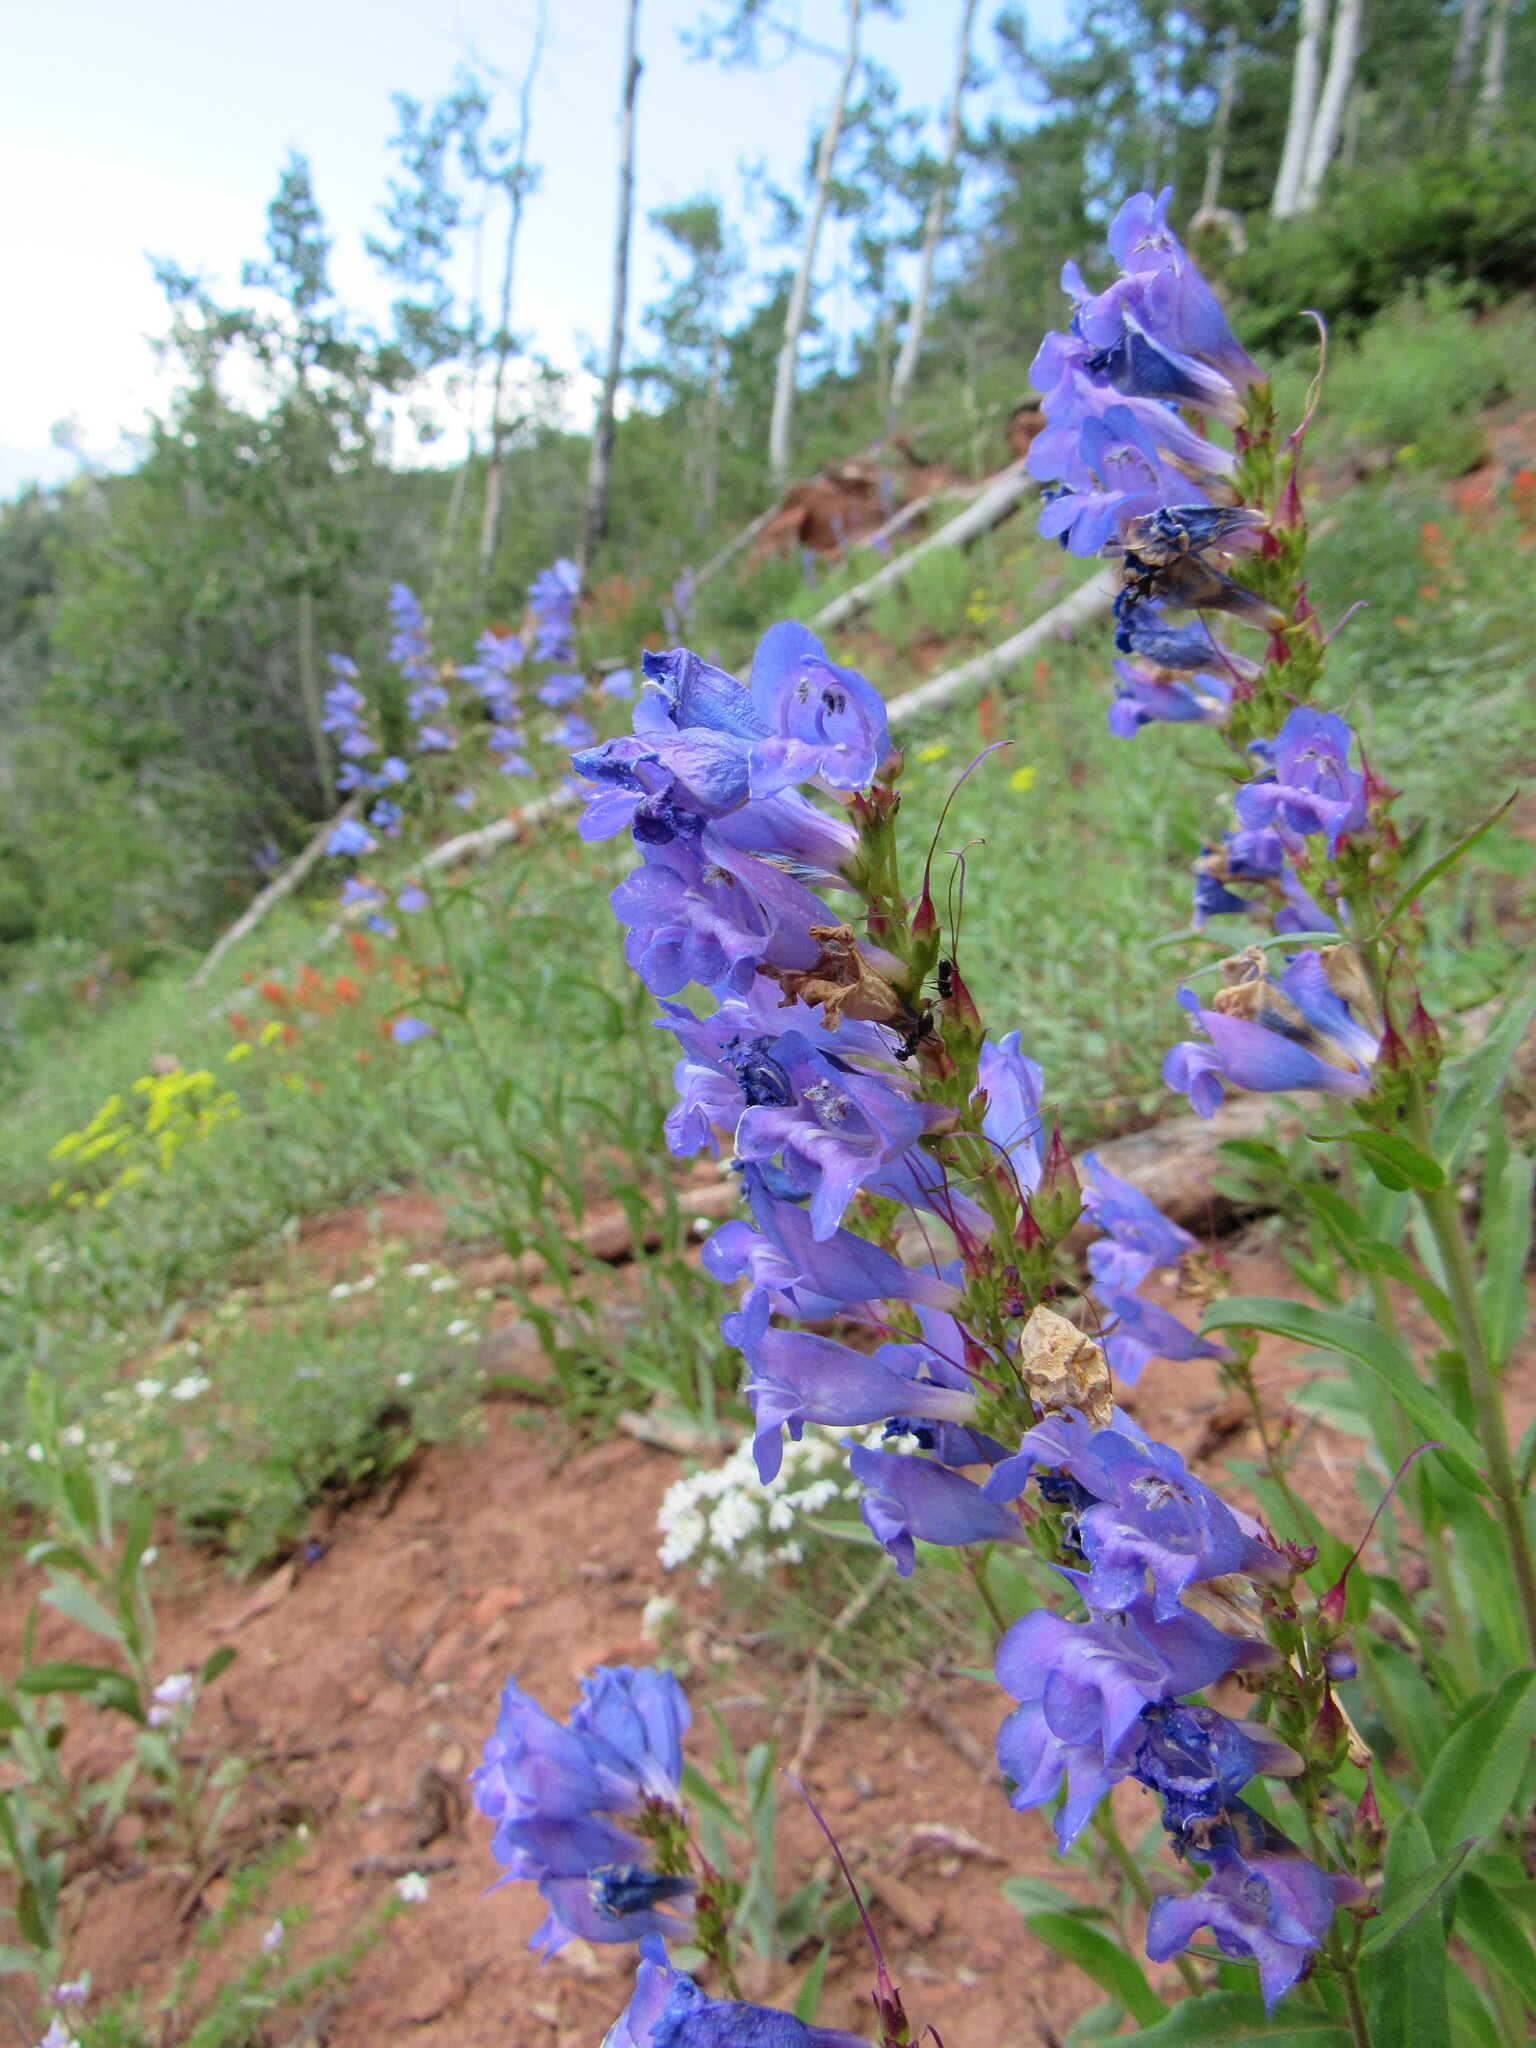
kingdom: Plantae
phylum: Tracheophyta
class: Magnoliopsida
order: Lamiales
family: Plantaginaceae
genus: Penstemon
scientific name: Penstemon strictus
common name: Rocky mountain penstemon
